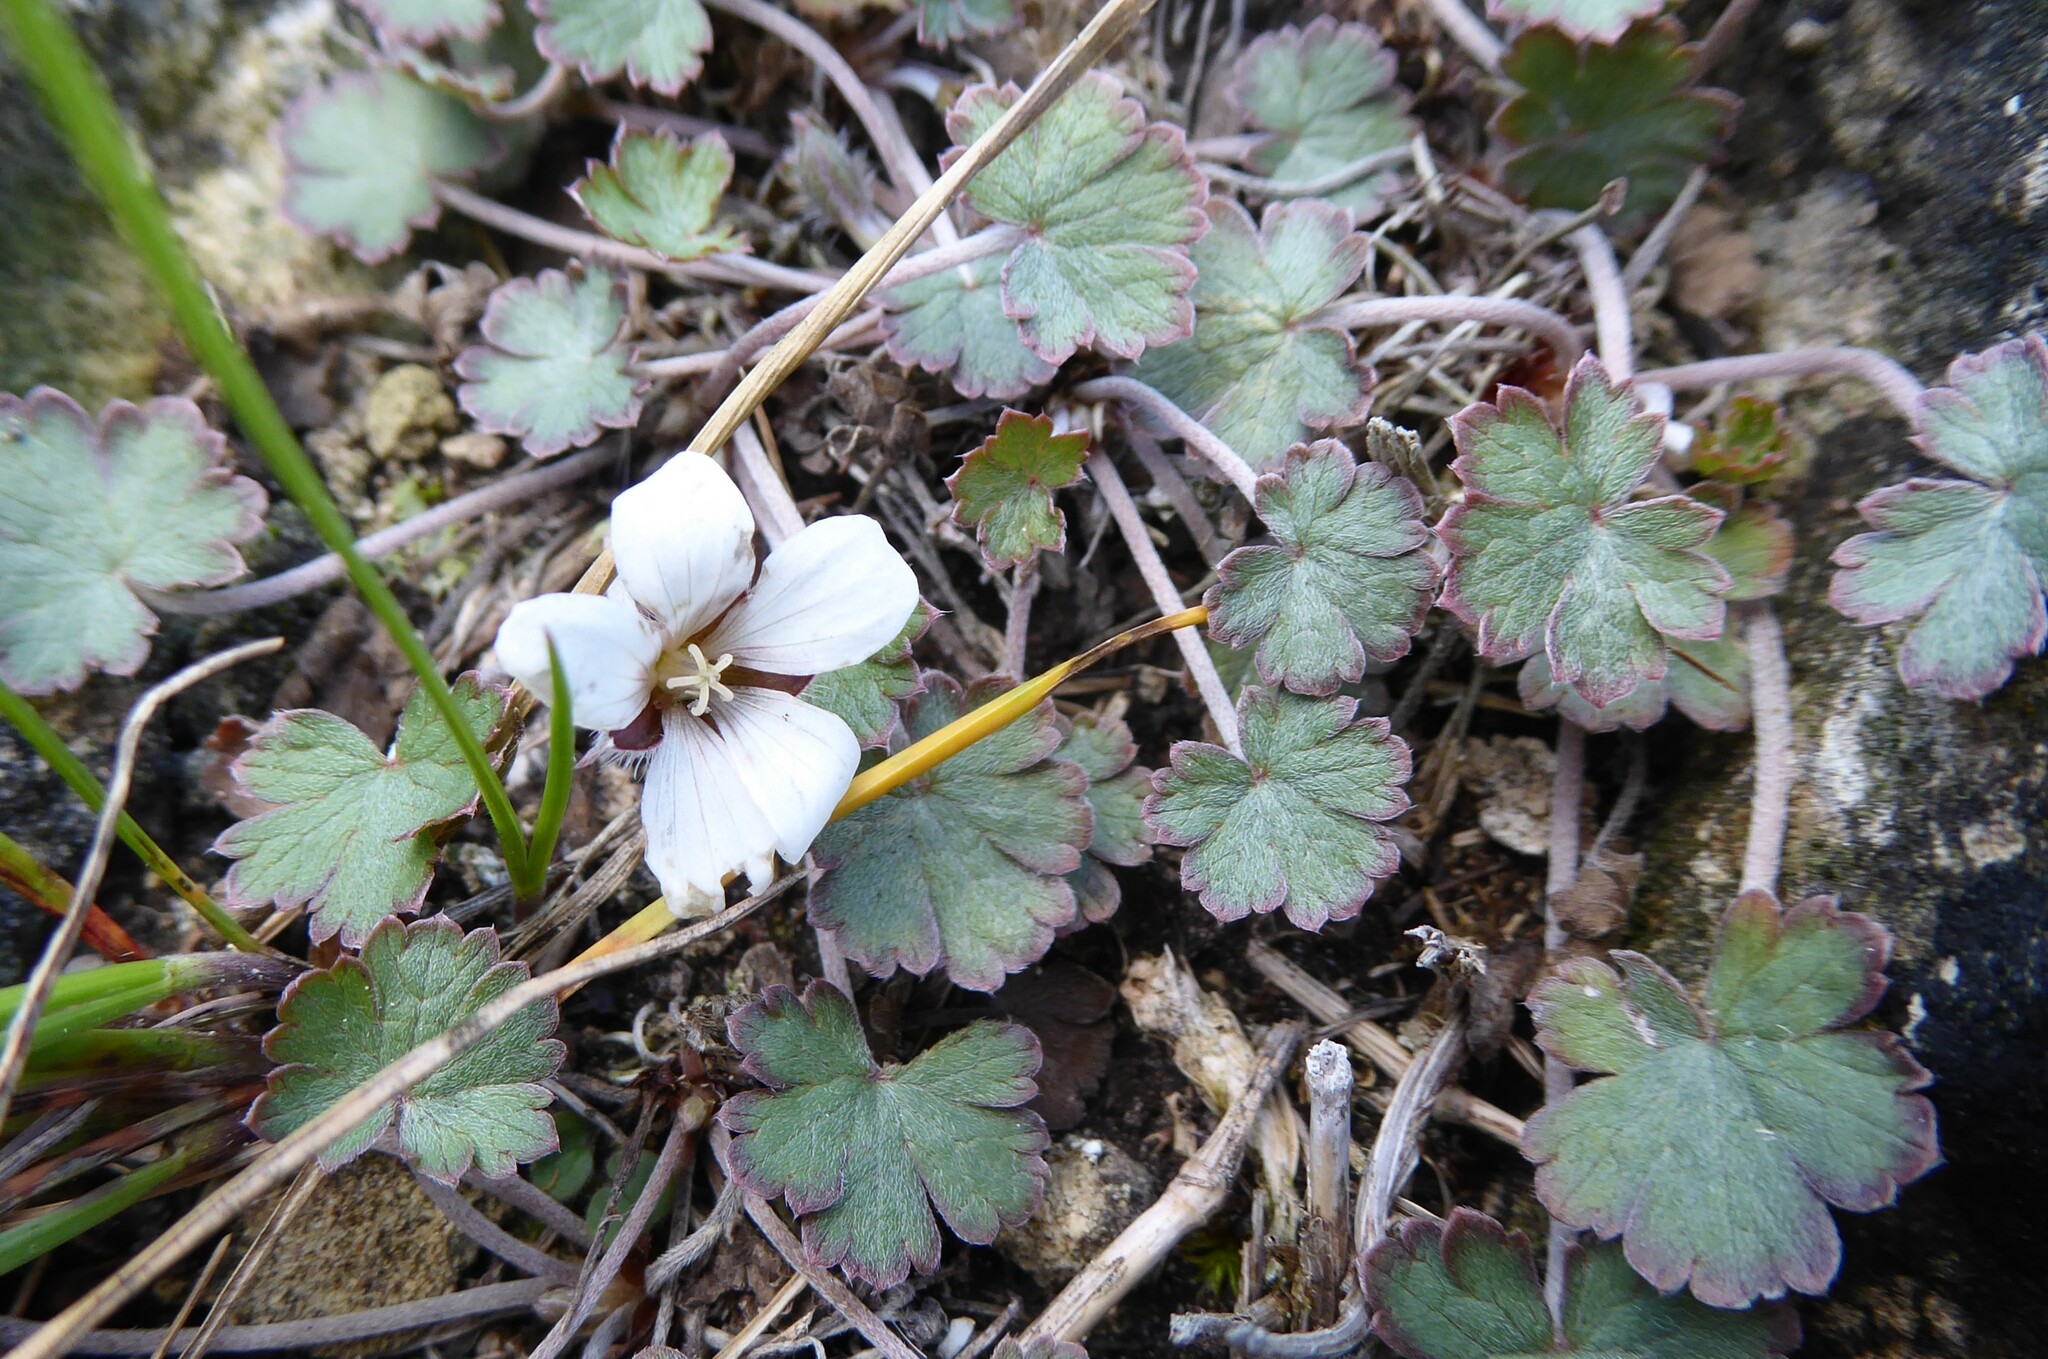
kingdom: Plantae
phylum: Tracheophyta
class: Magnoliopsida
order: Geraniales
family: Geraniaceae
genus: Geranium
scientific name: Geranium socolateum
